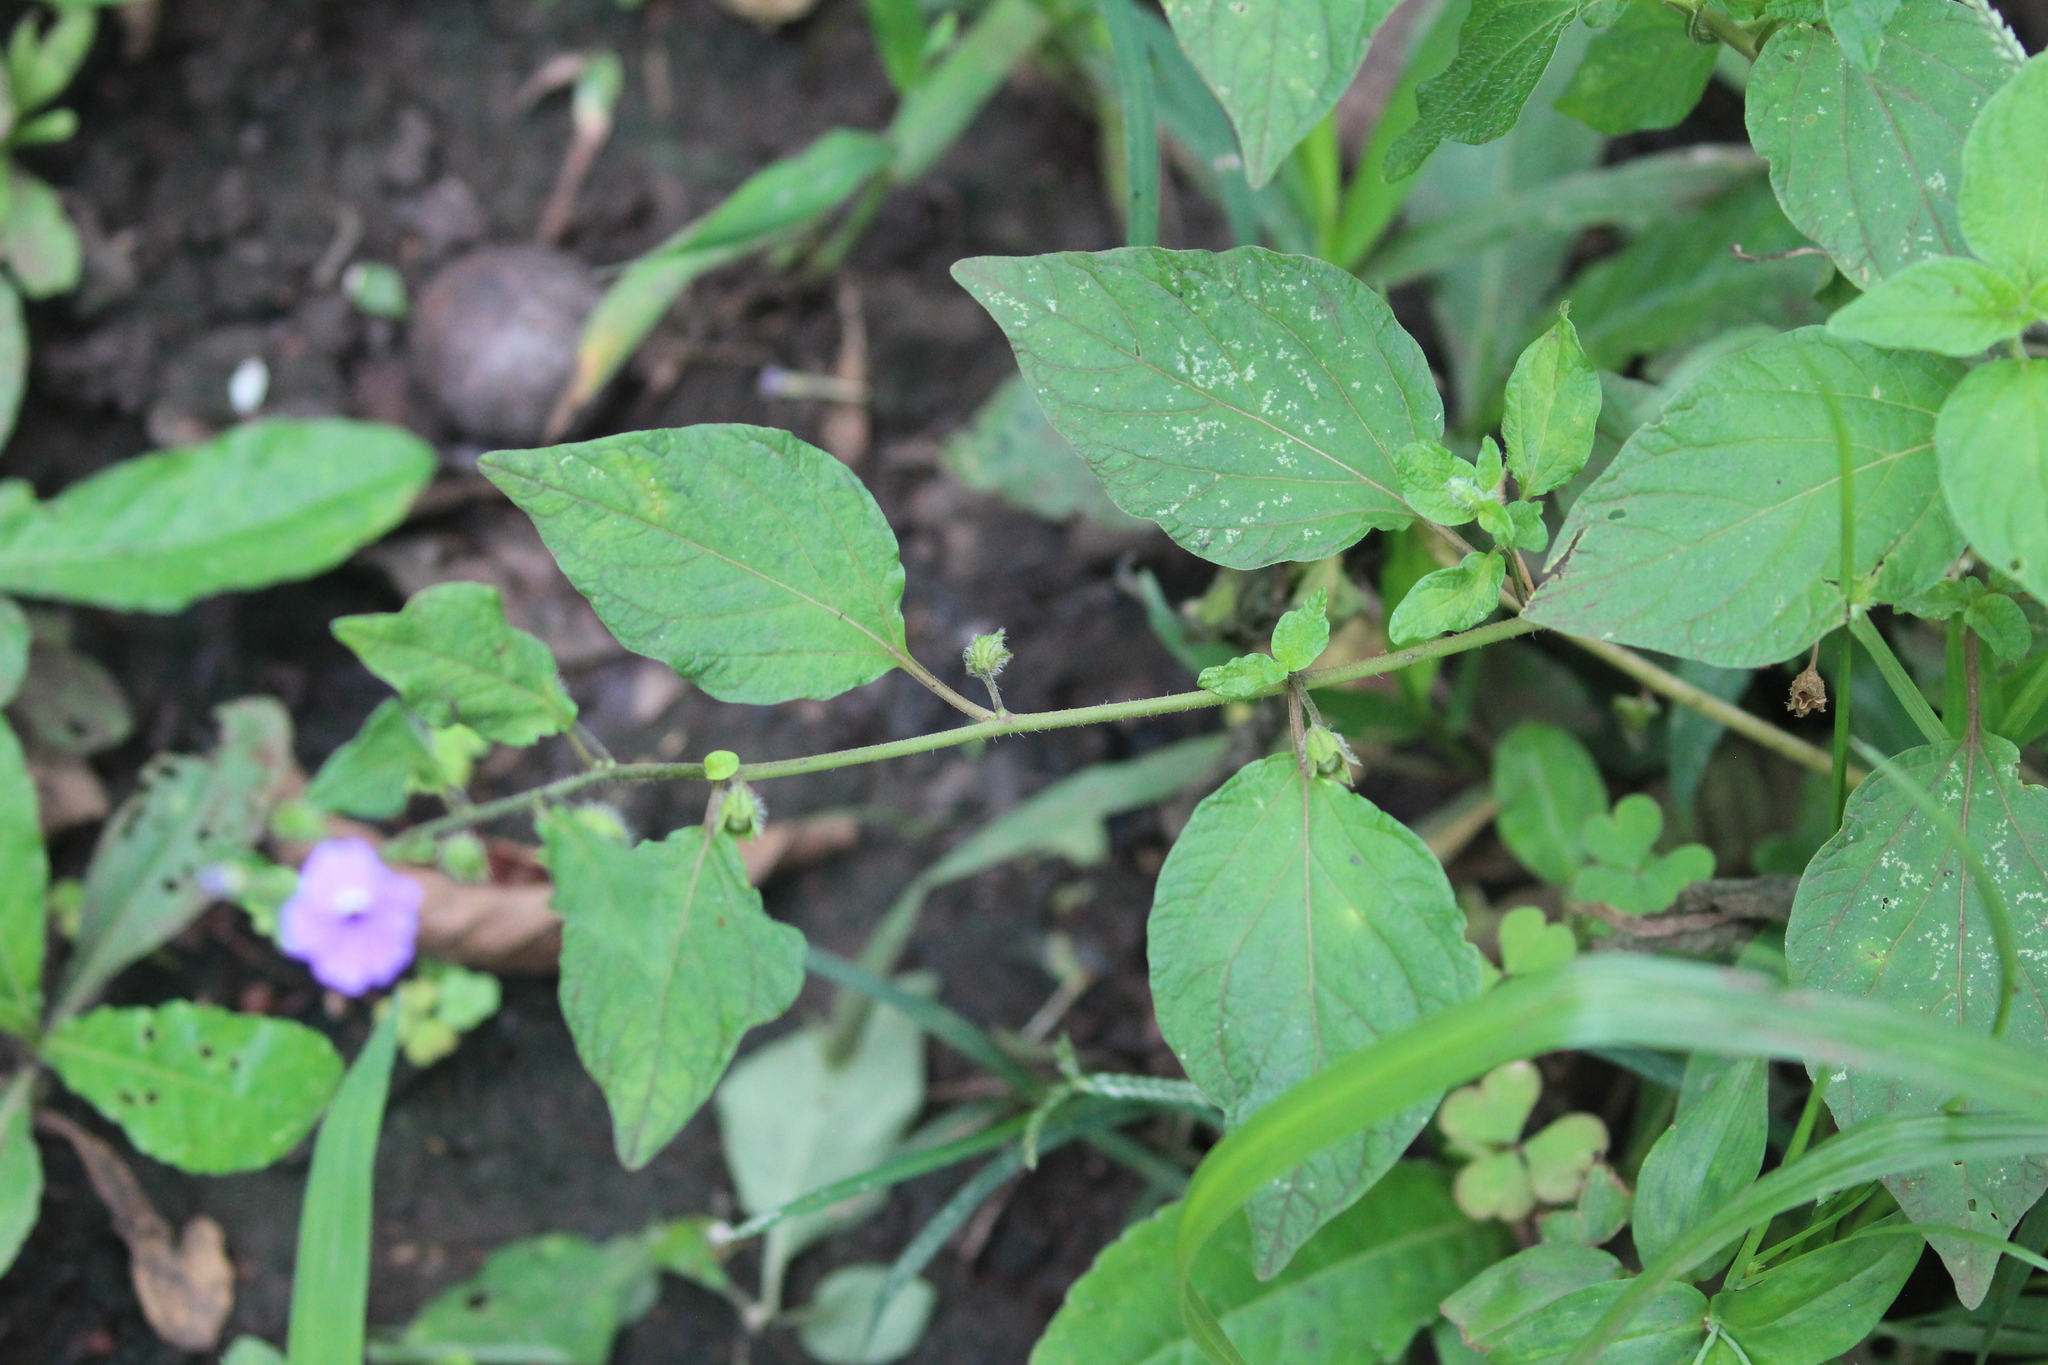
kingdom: Plantae
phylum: Tracheophyta
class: Magnoliopsida
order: Solanales
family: Solanaceae
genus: Browallia
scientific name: Browallia americana
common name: Jamaican forget-me-not
